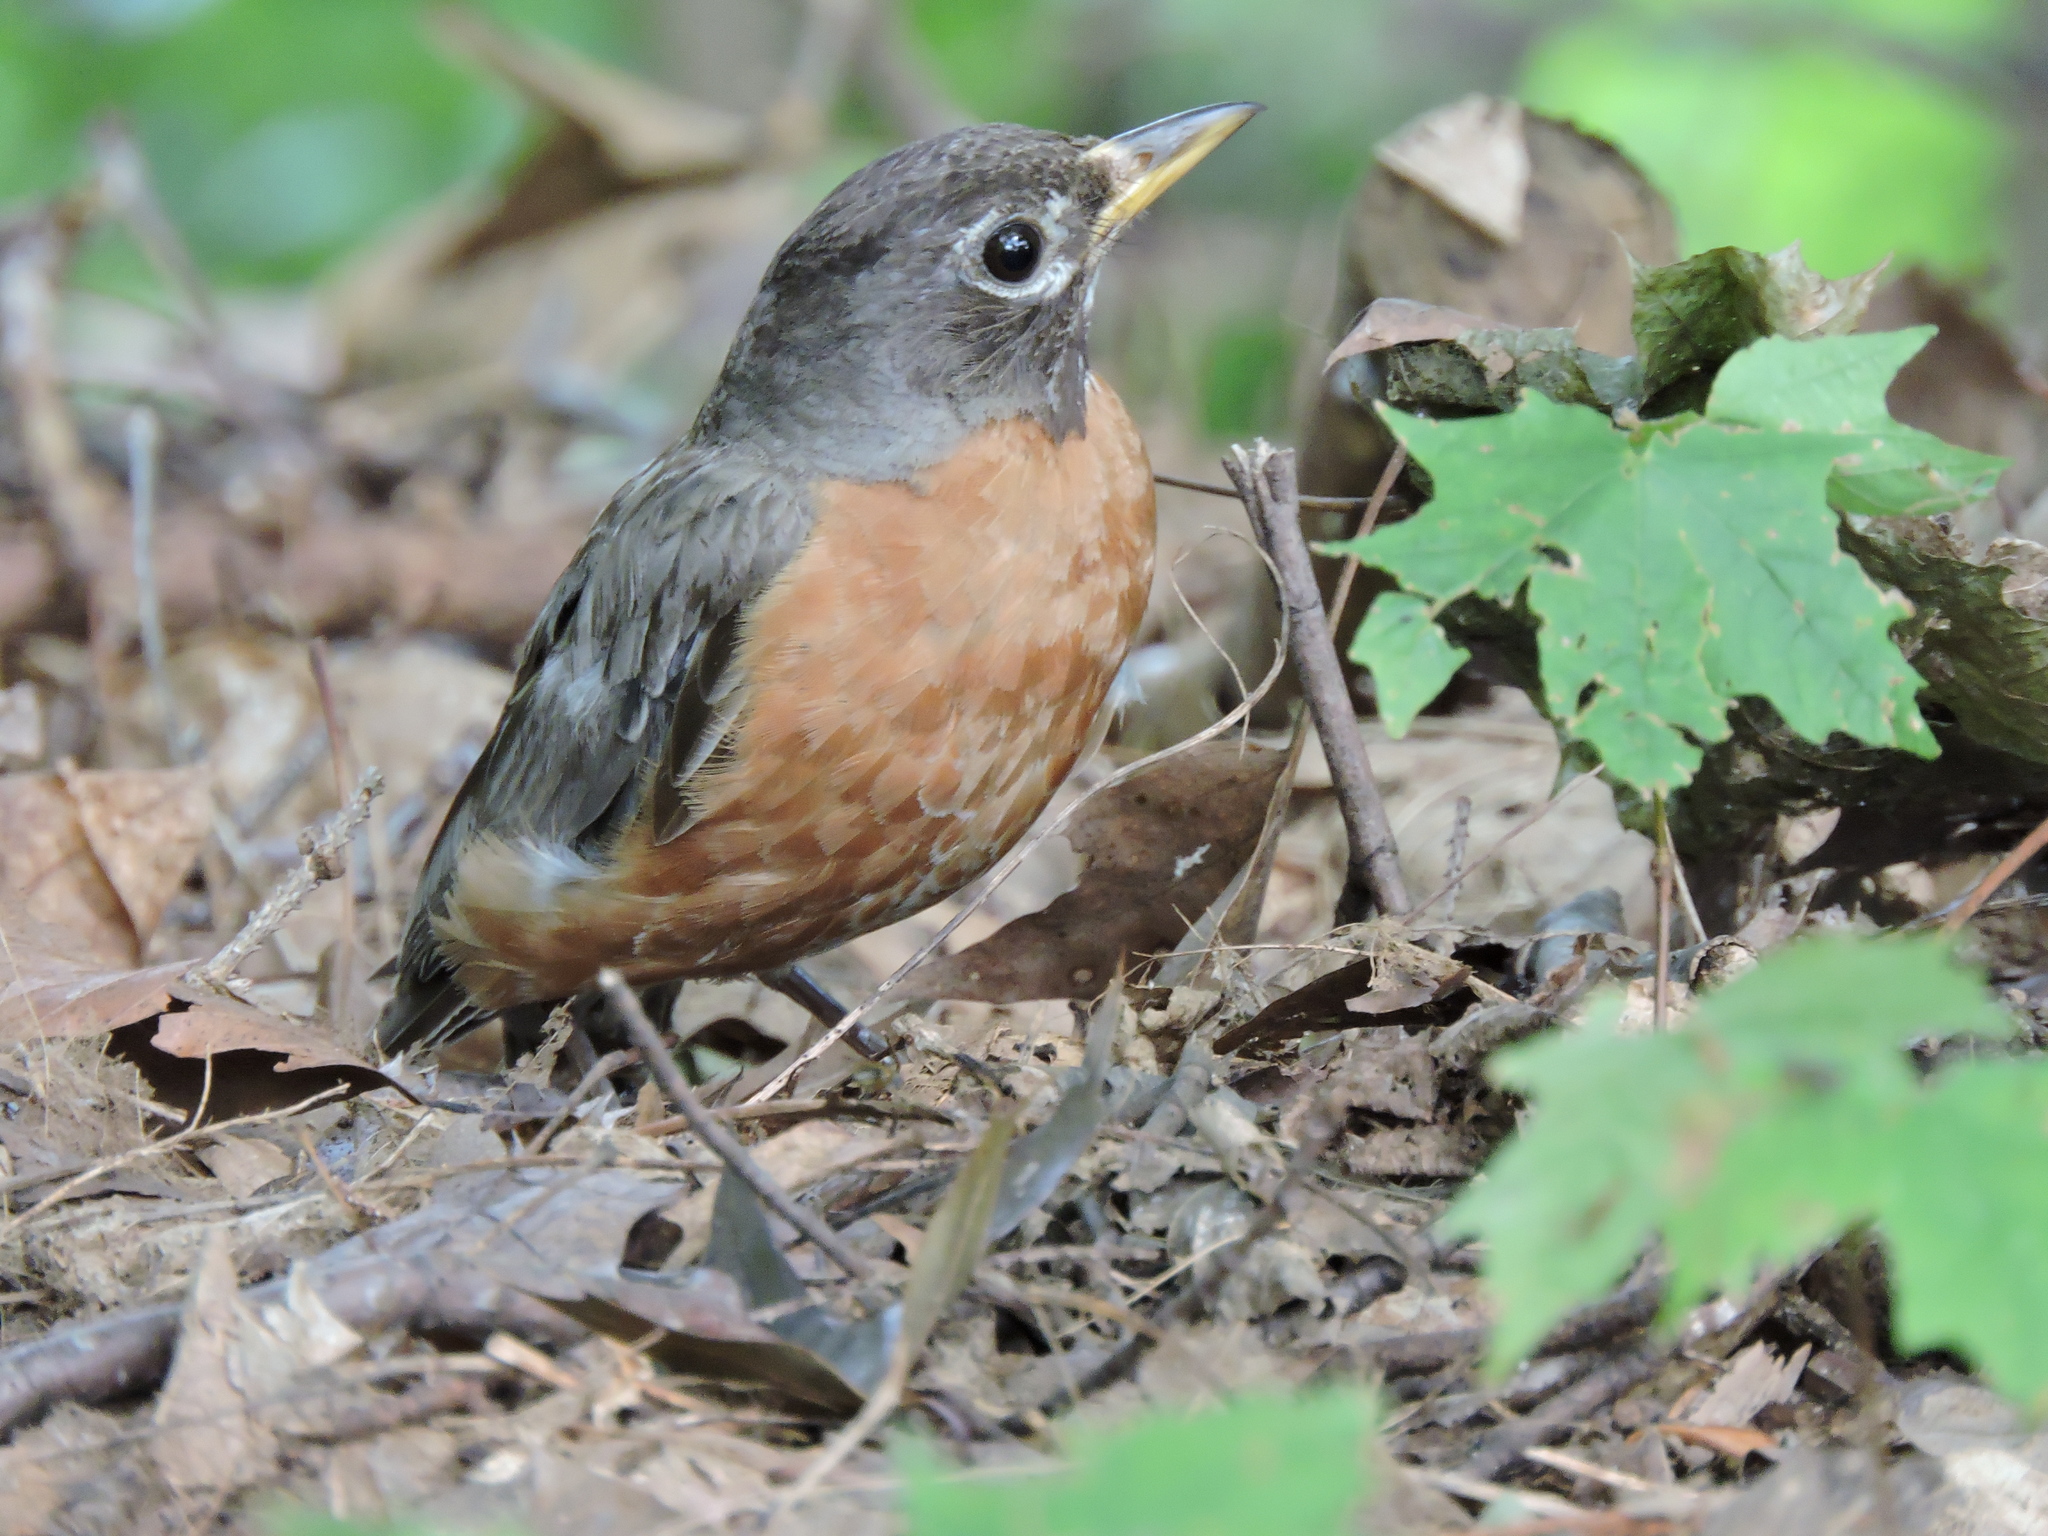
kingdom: Animalia
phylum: Chordata
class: Aves
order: Passeriformes
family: Turdidae
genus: Turdus
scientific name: Turdus migratorius
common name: American robin
